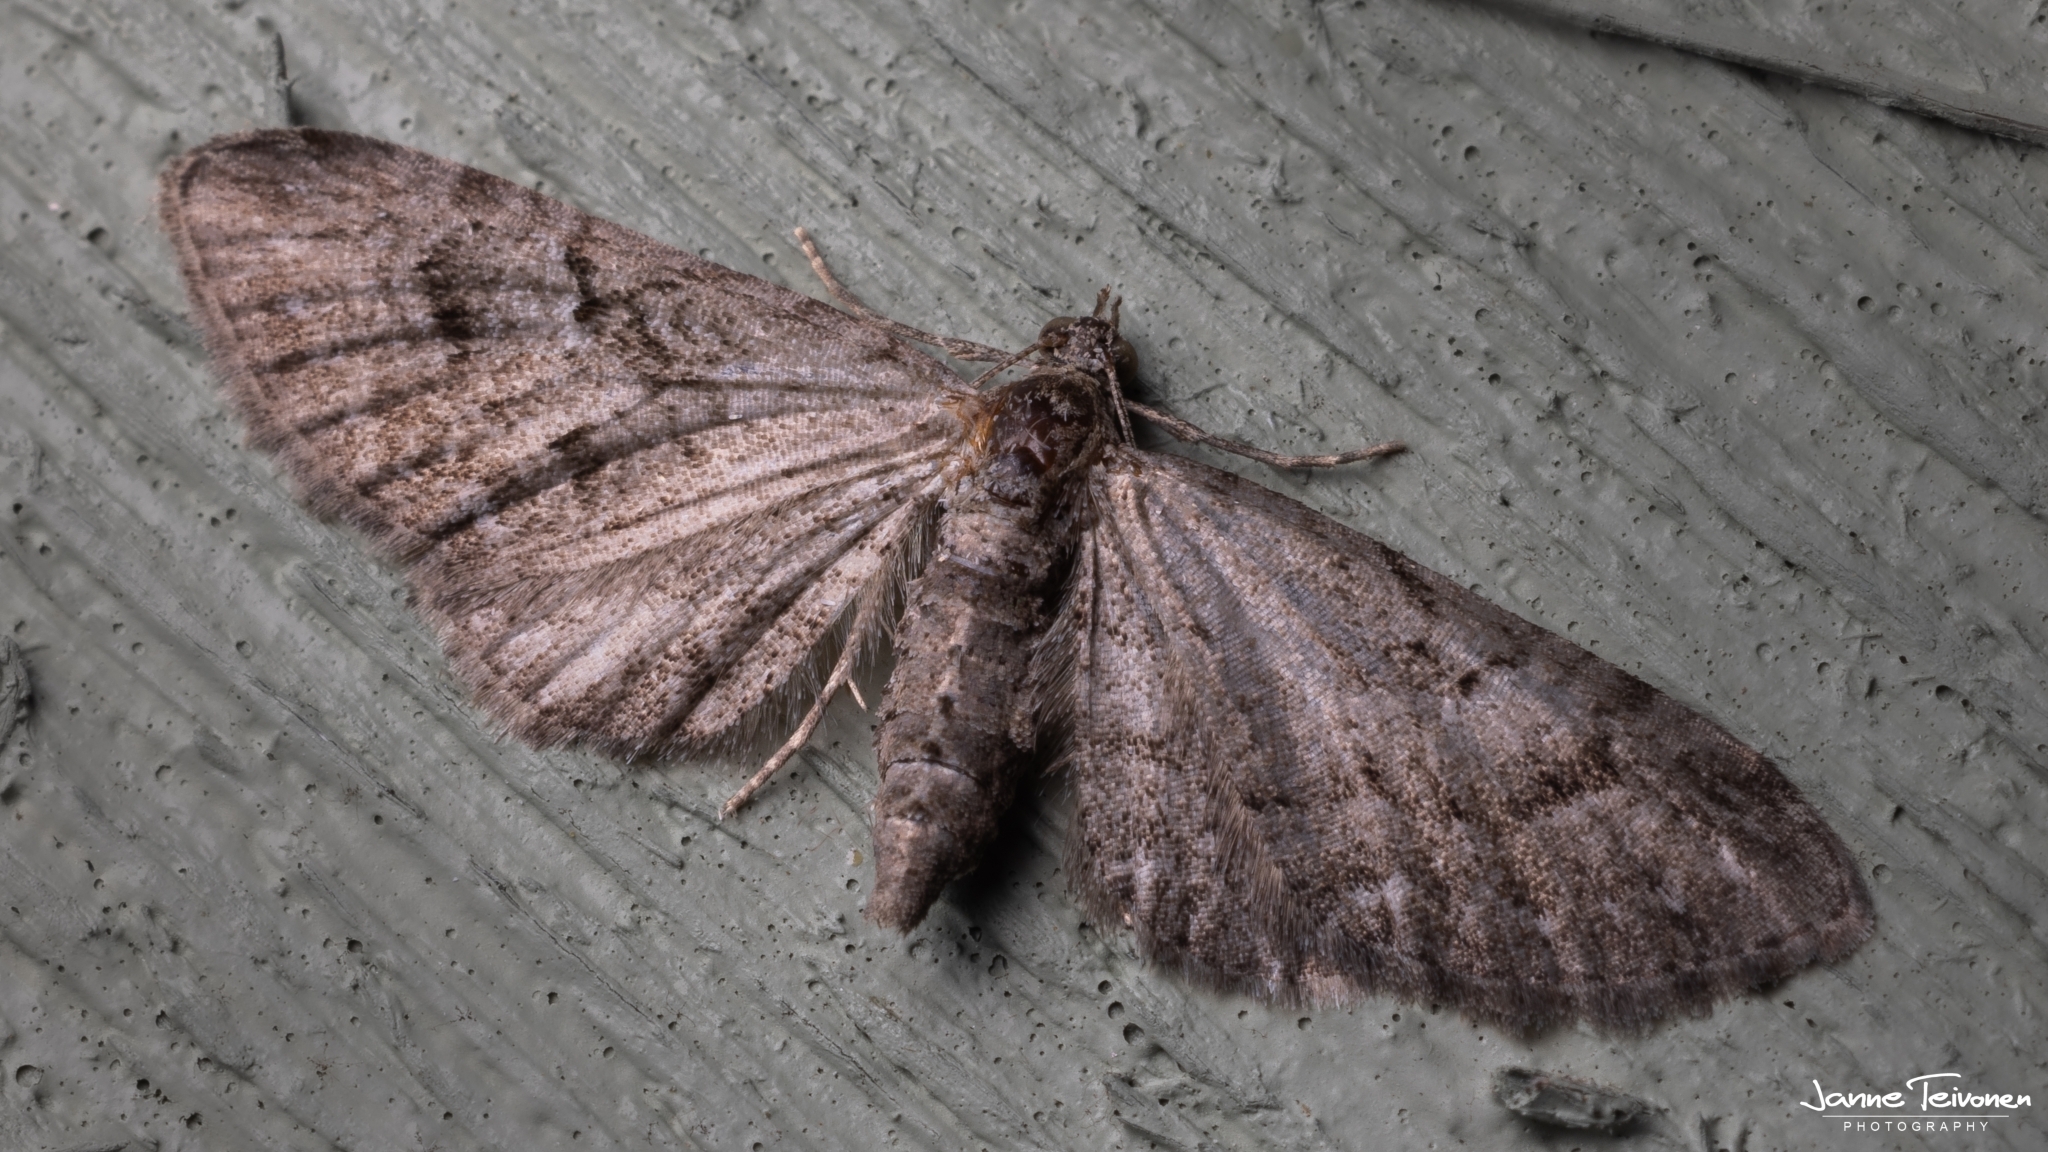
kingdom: Animalia
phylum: Arthropoda
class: Insecta
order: Lepidoptera
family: Geometridae
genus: Eupithecia
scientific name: Eupithecia pusillata
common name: Juniper pug
